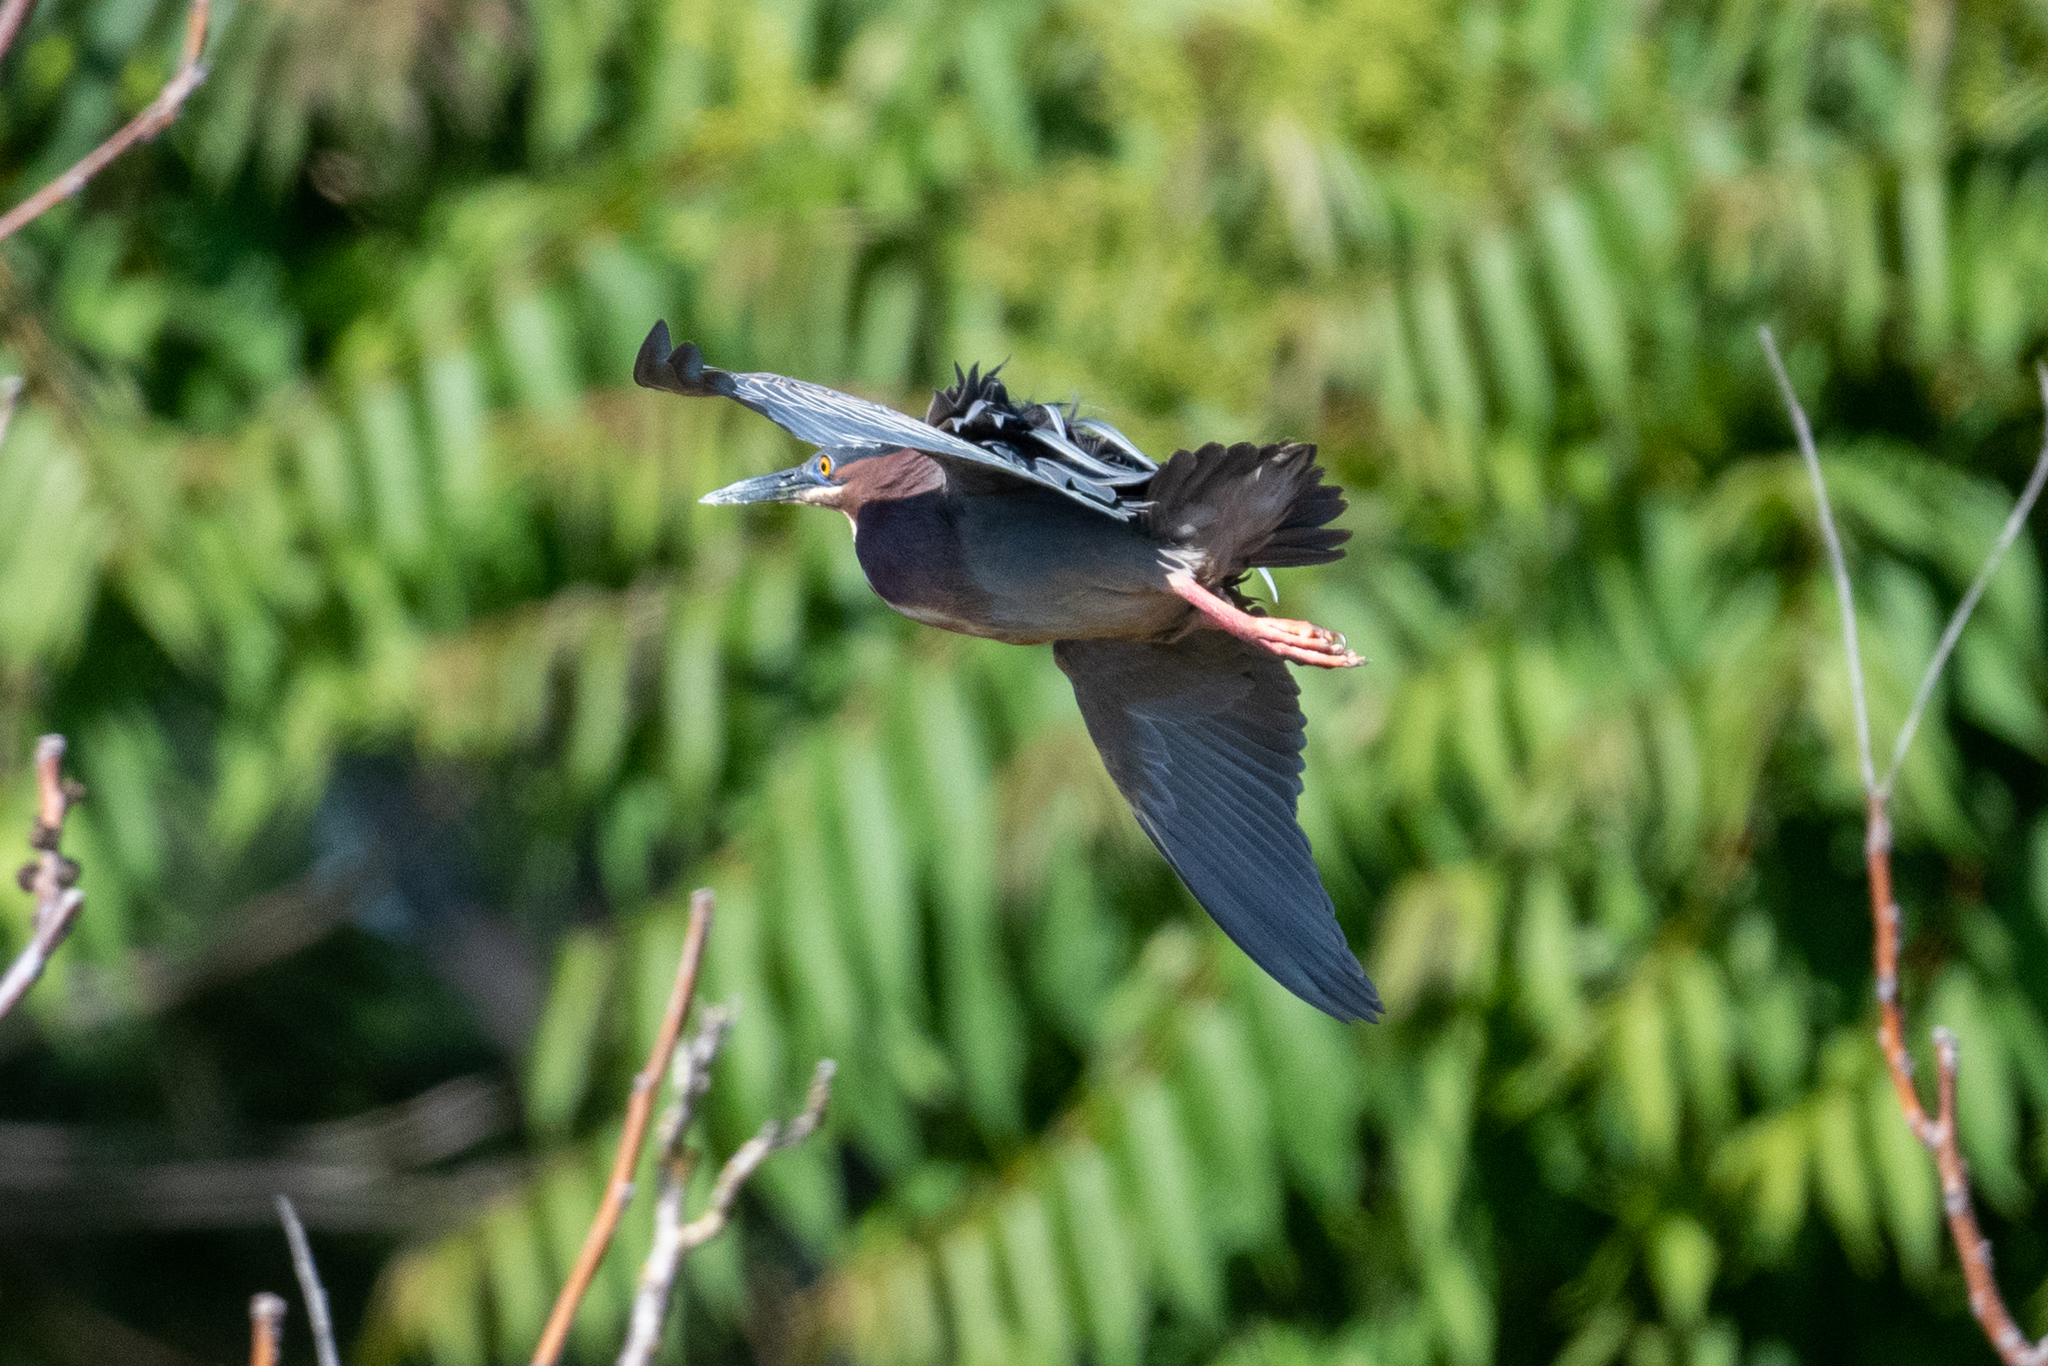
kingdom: Animalia
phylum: Chordata
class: Aves
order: Pelecaniformes
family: Ardeidae
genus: Butorides
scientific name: Butorides virescens
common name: Green heron
